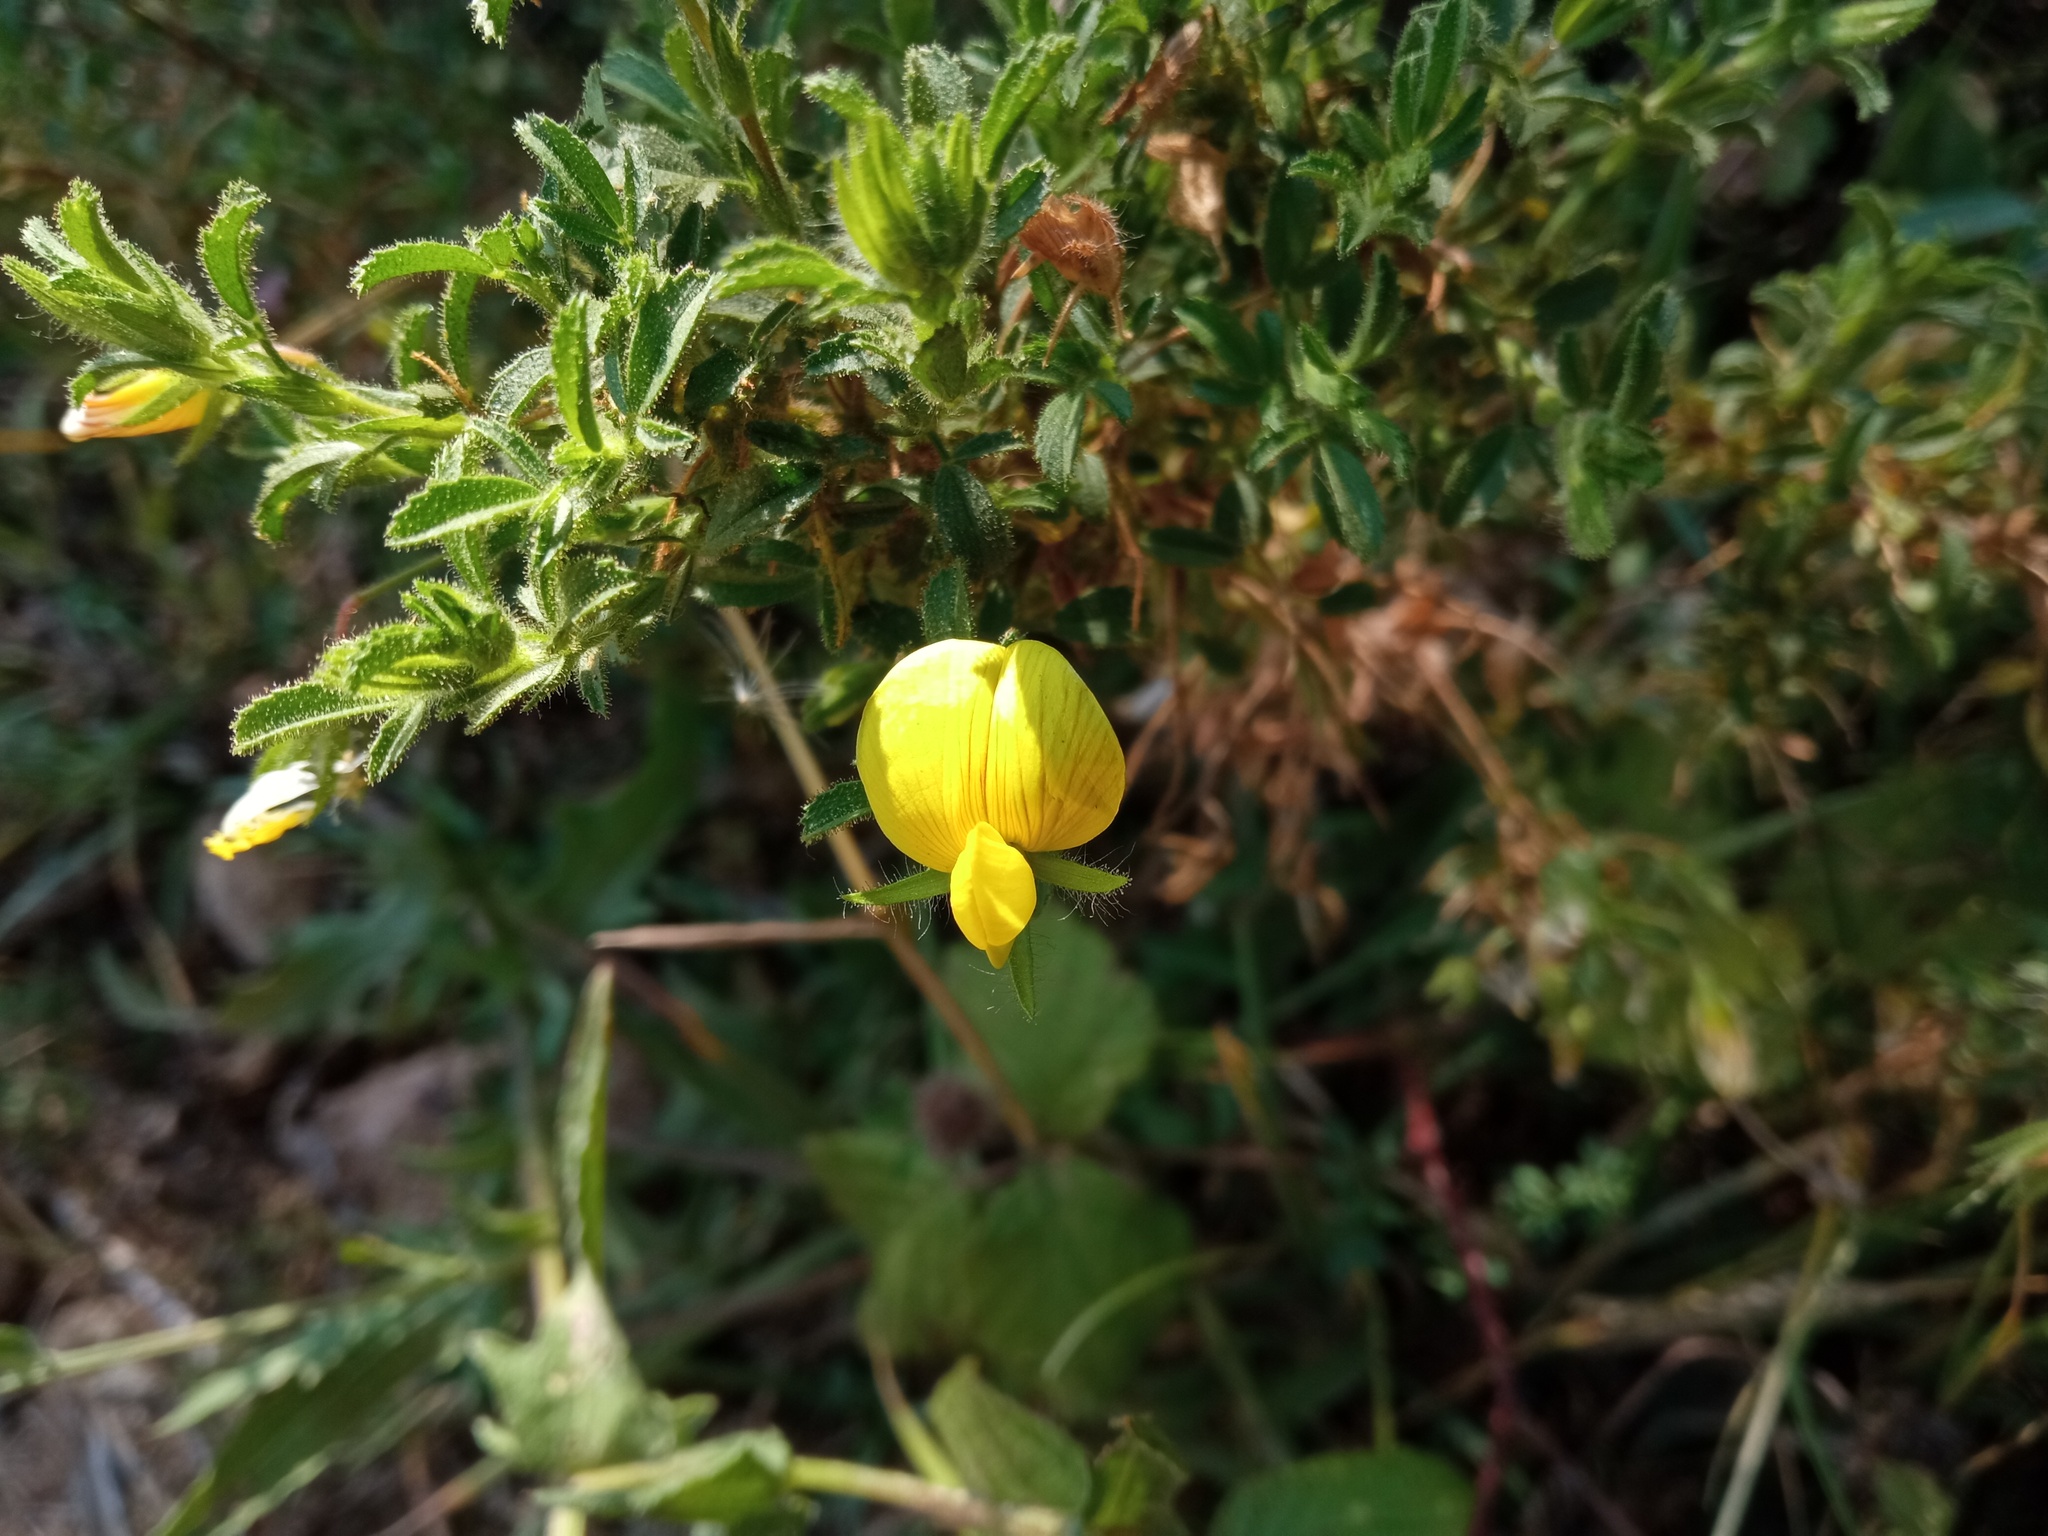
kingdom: Plantae
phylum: Tracheophyta
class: Magnoliopsida
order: Fabales
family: Fabaceae
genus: Ononis
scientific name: Ononis natrix
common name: Yellow restharrow
